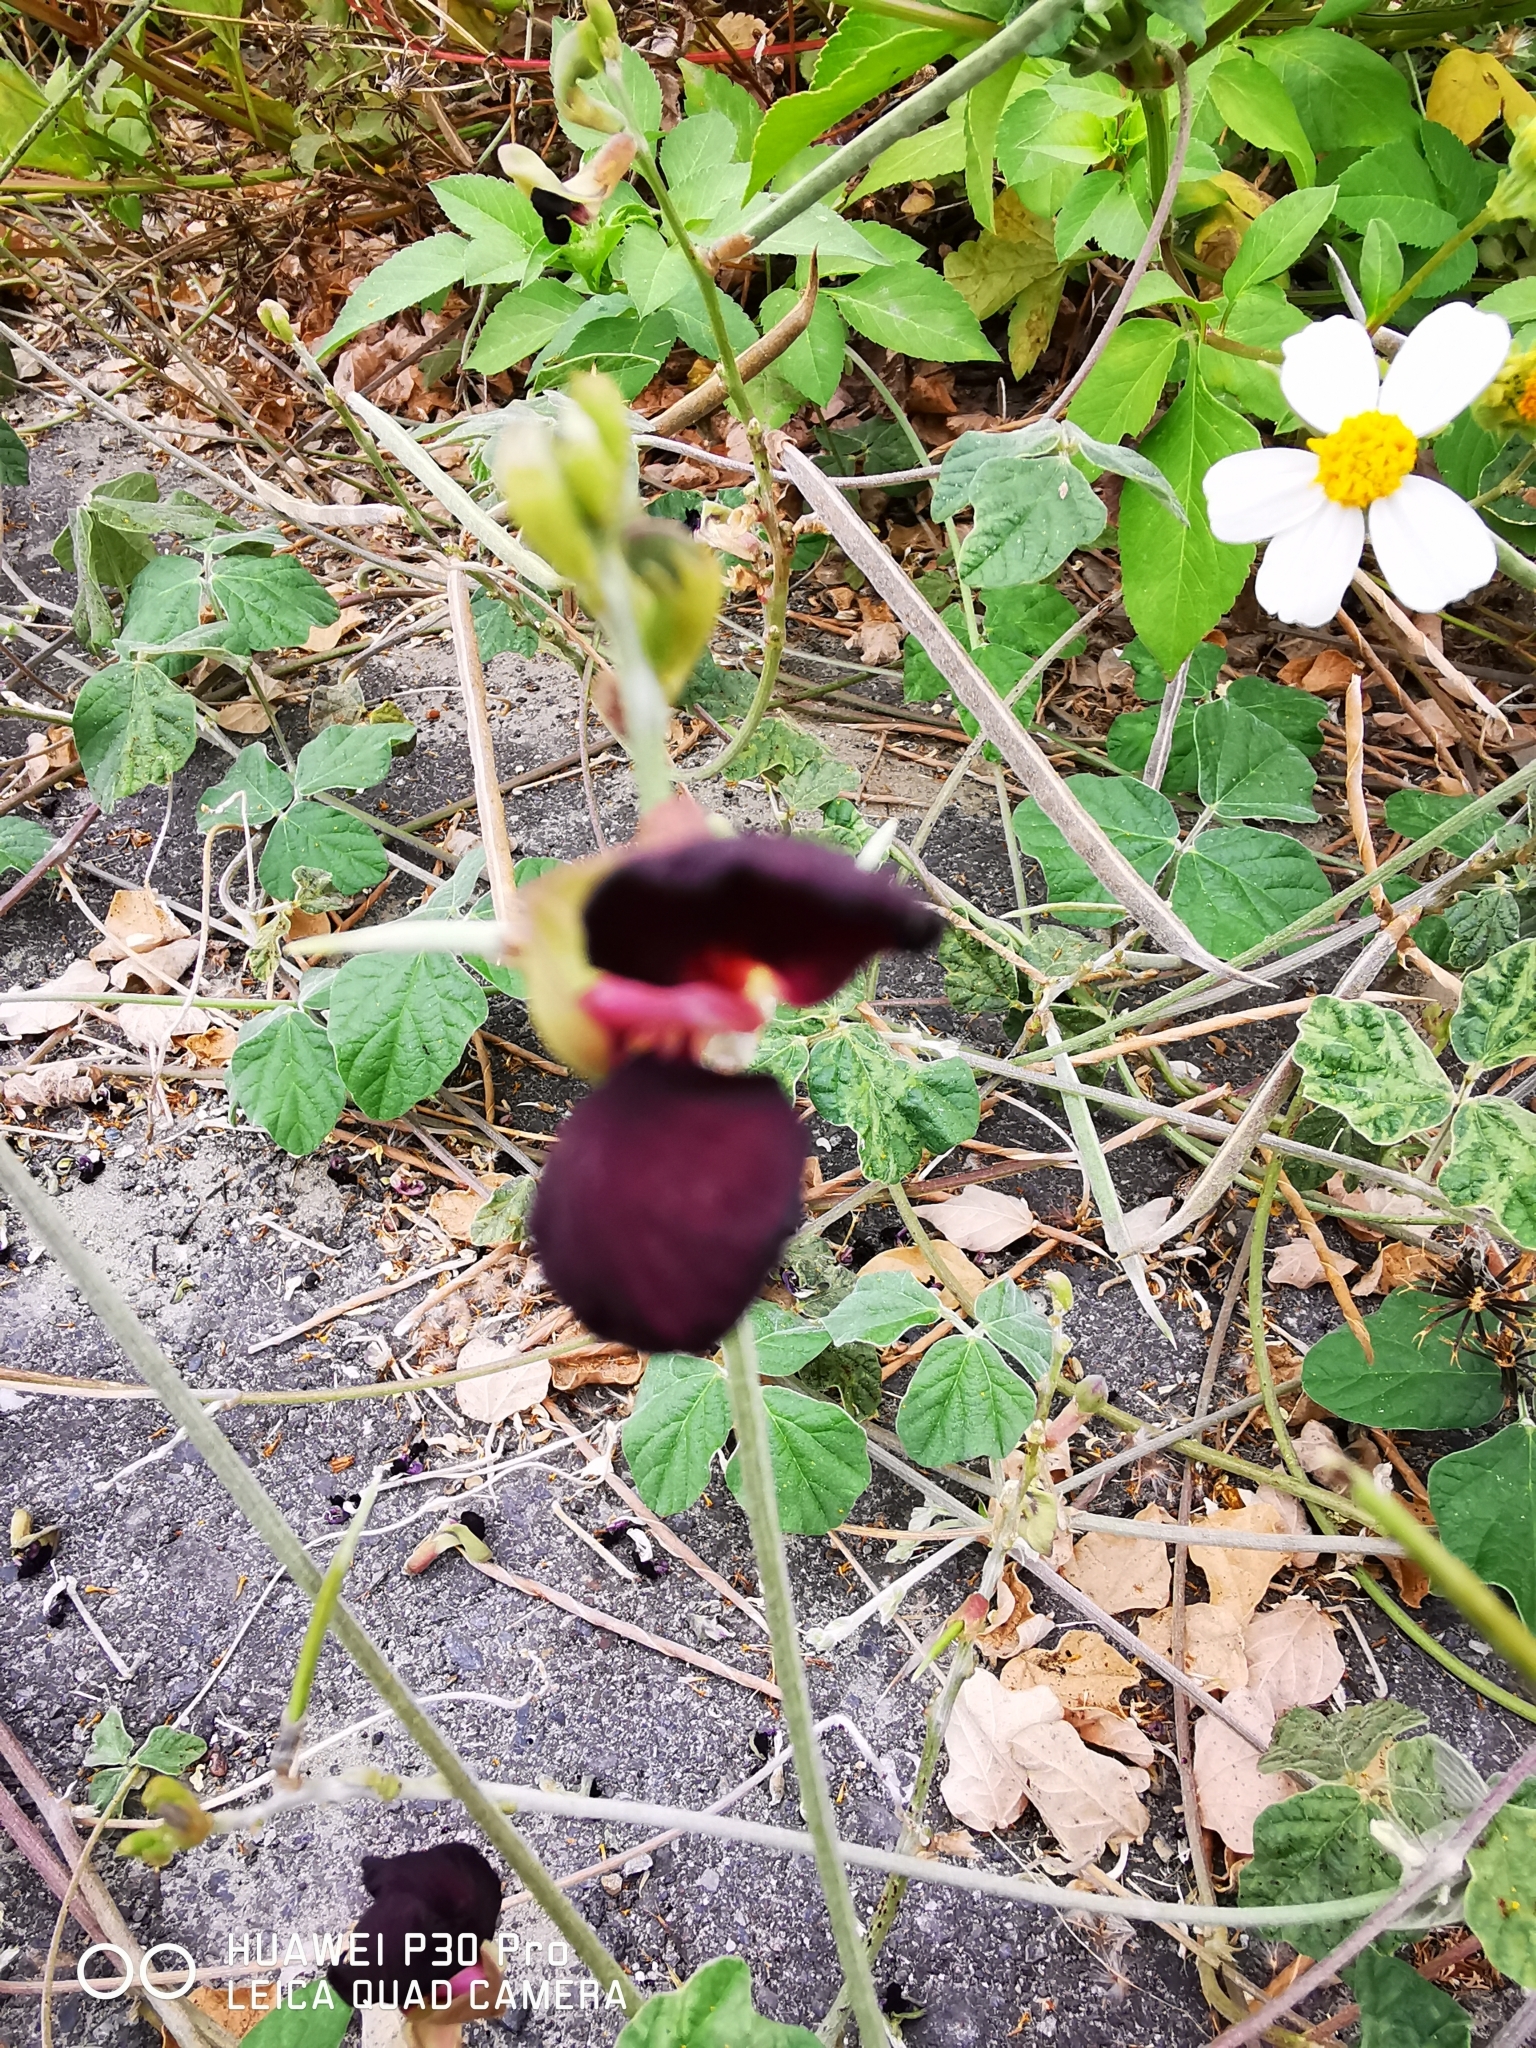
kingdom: Plantae
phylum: Tracheophyta
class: Magnoliopsida
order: Fabales
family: Fabaceae
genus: Macroptilium
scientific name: Macroptilium atropurpureum
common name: Purple bushbean
